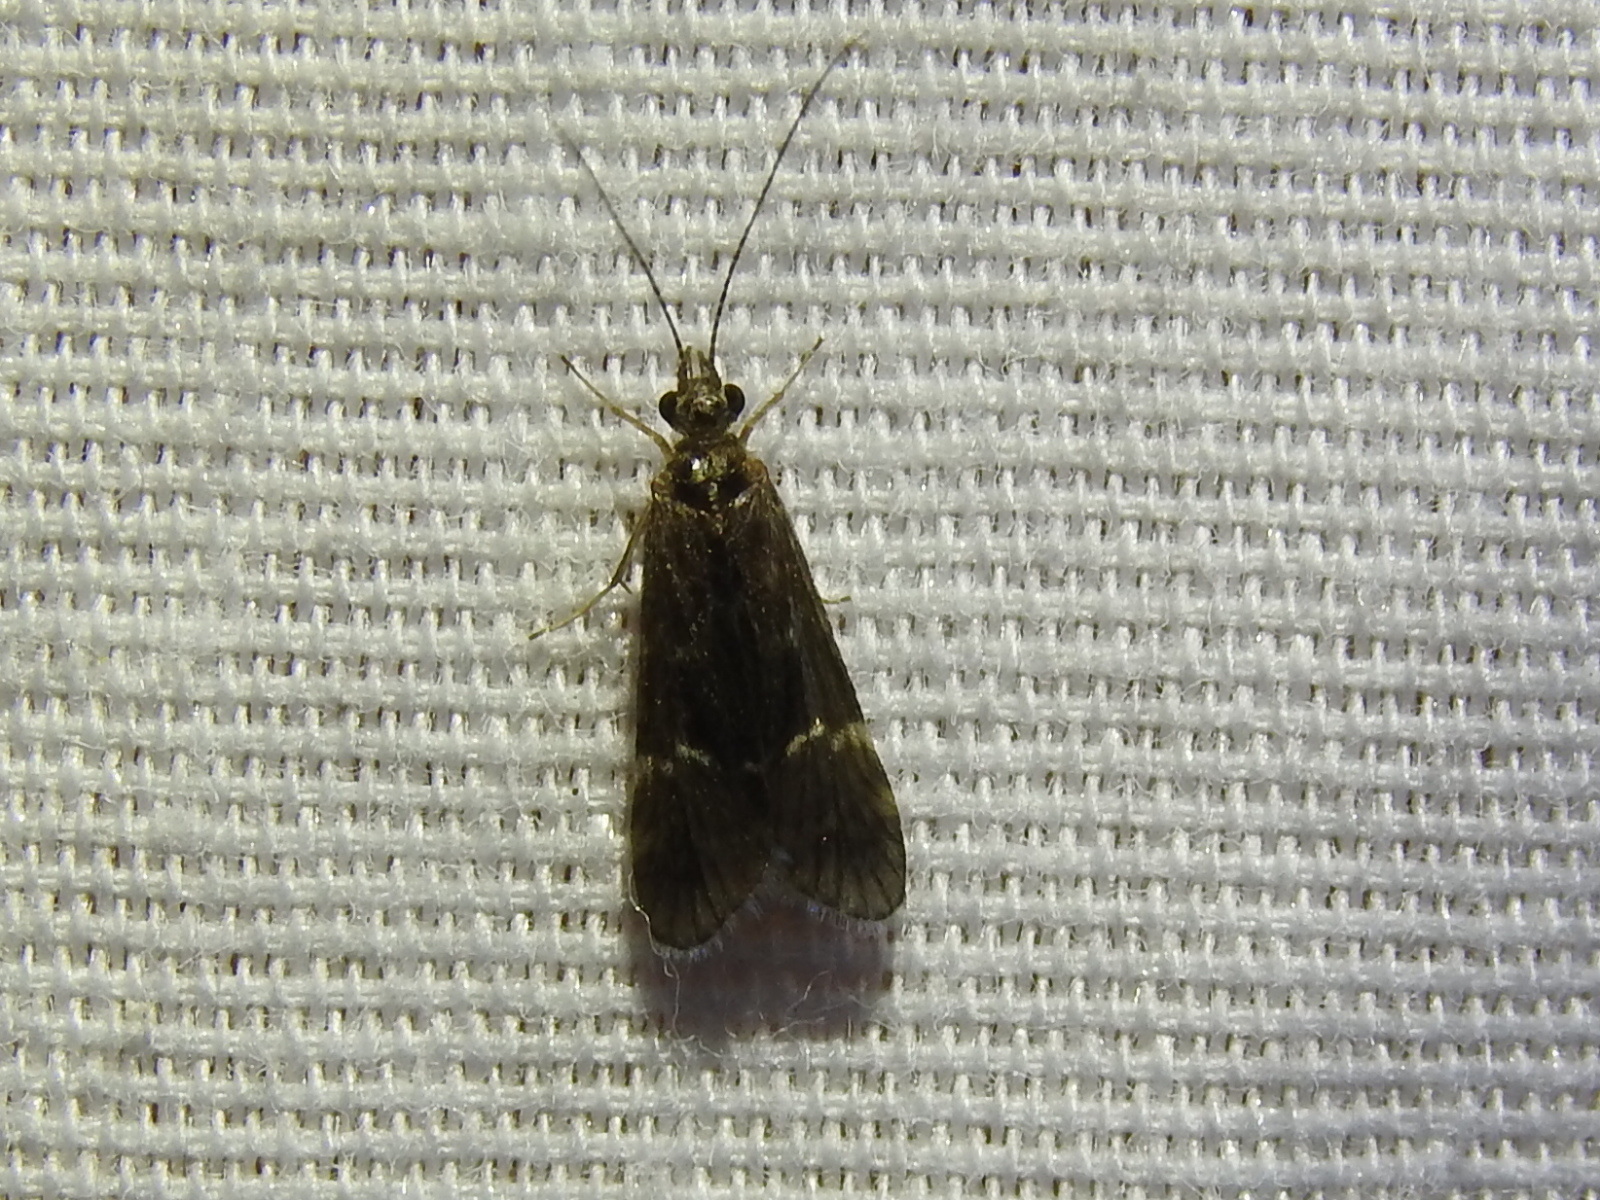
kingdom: Animalia
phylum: Arthropoda
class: Insecta
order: Trichoptera
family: Hydropsychidae
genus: Smicridea
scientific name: Smicridea fasciatella
